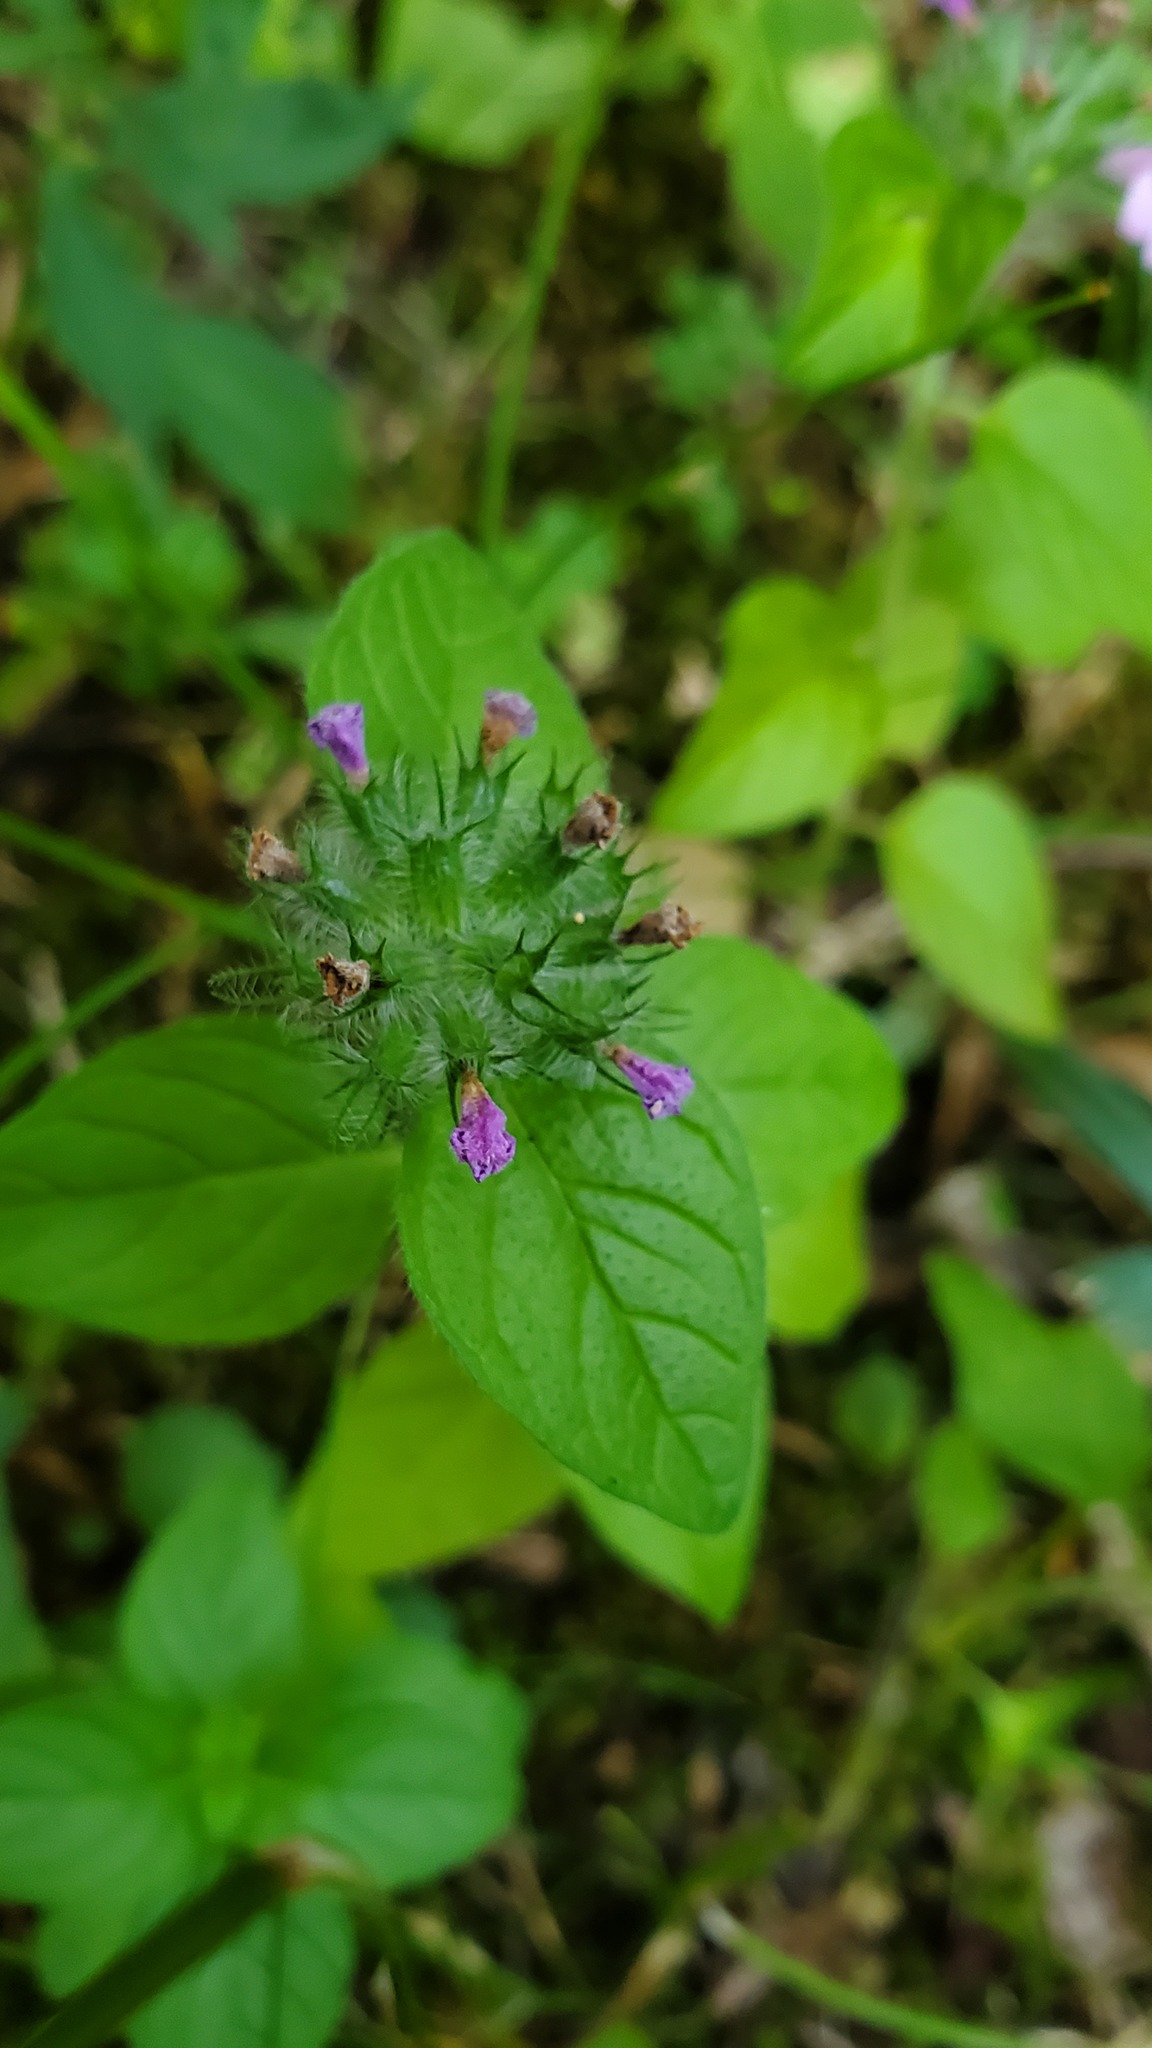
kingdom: Plantae
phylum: Tracheophyta
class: Magnoliopsida
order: Lamiales
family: Lamiaceae
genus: Clinopodium
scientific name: Clinopodium vulgare
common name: Wild basil
